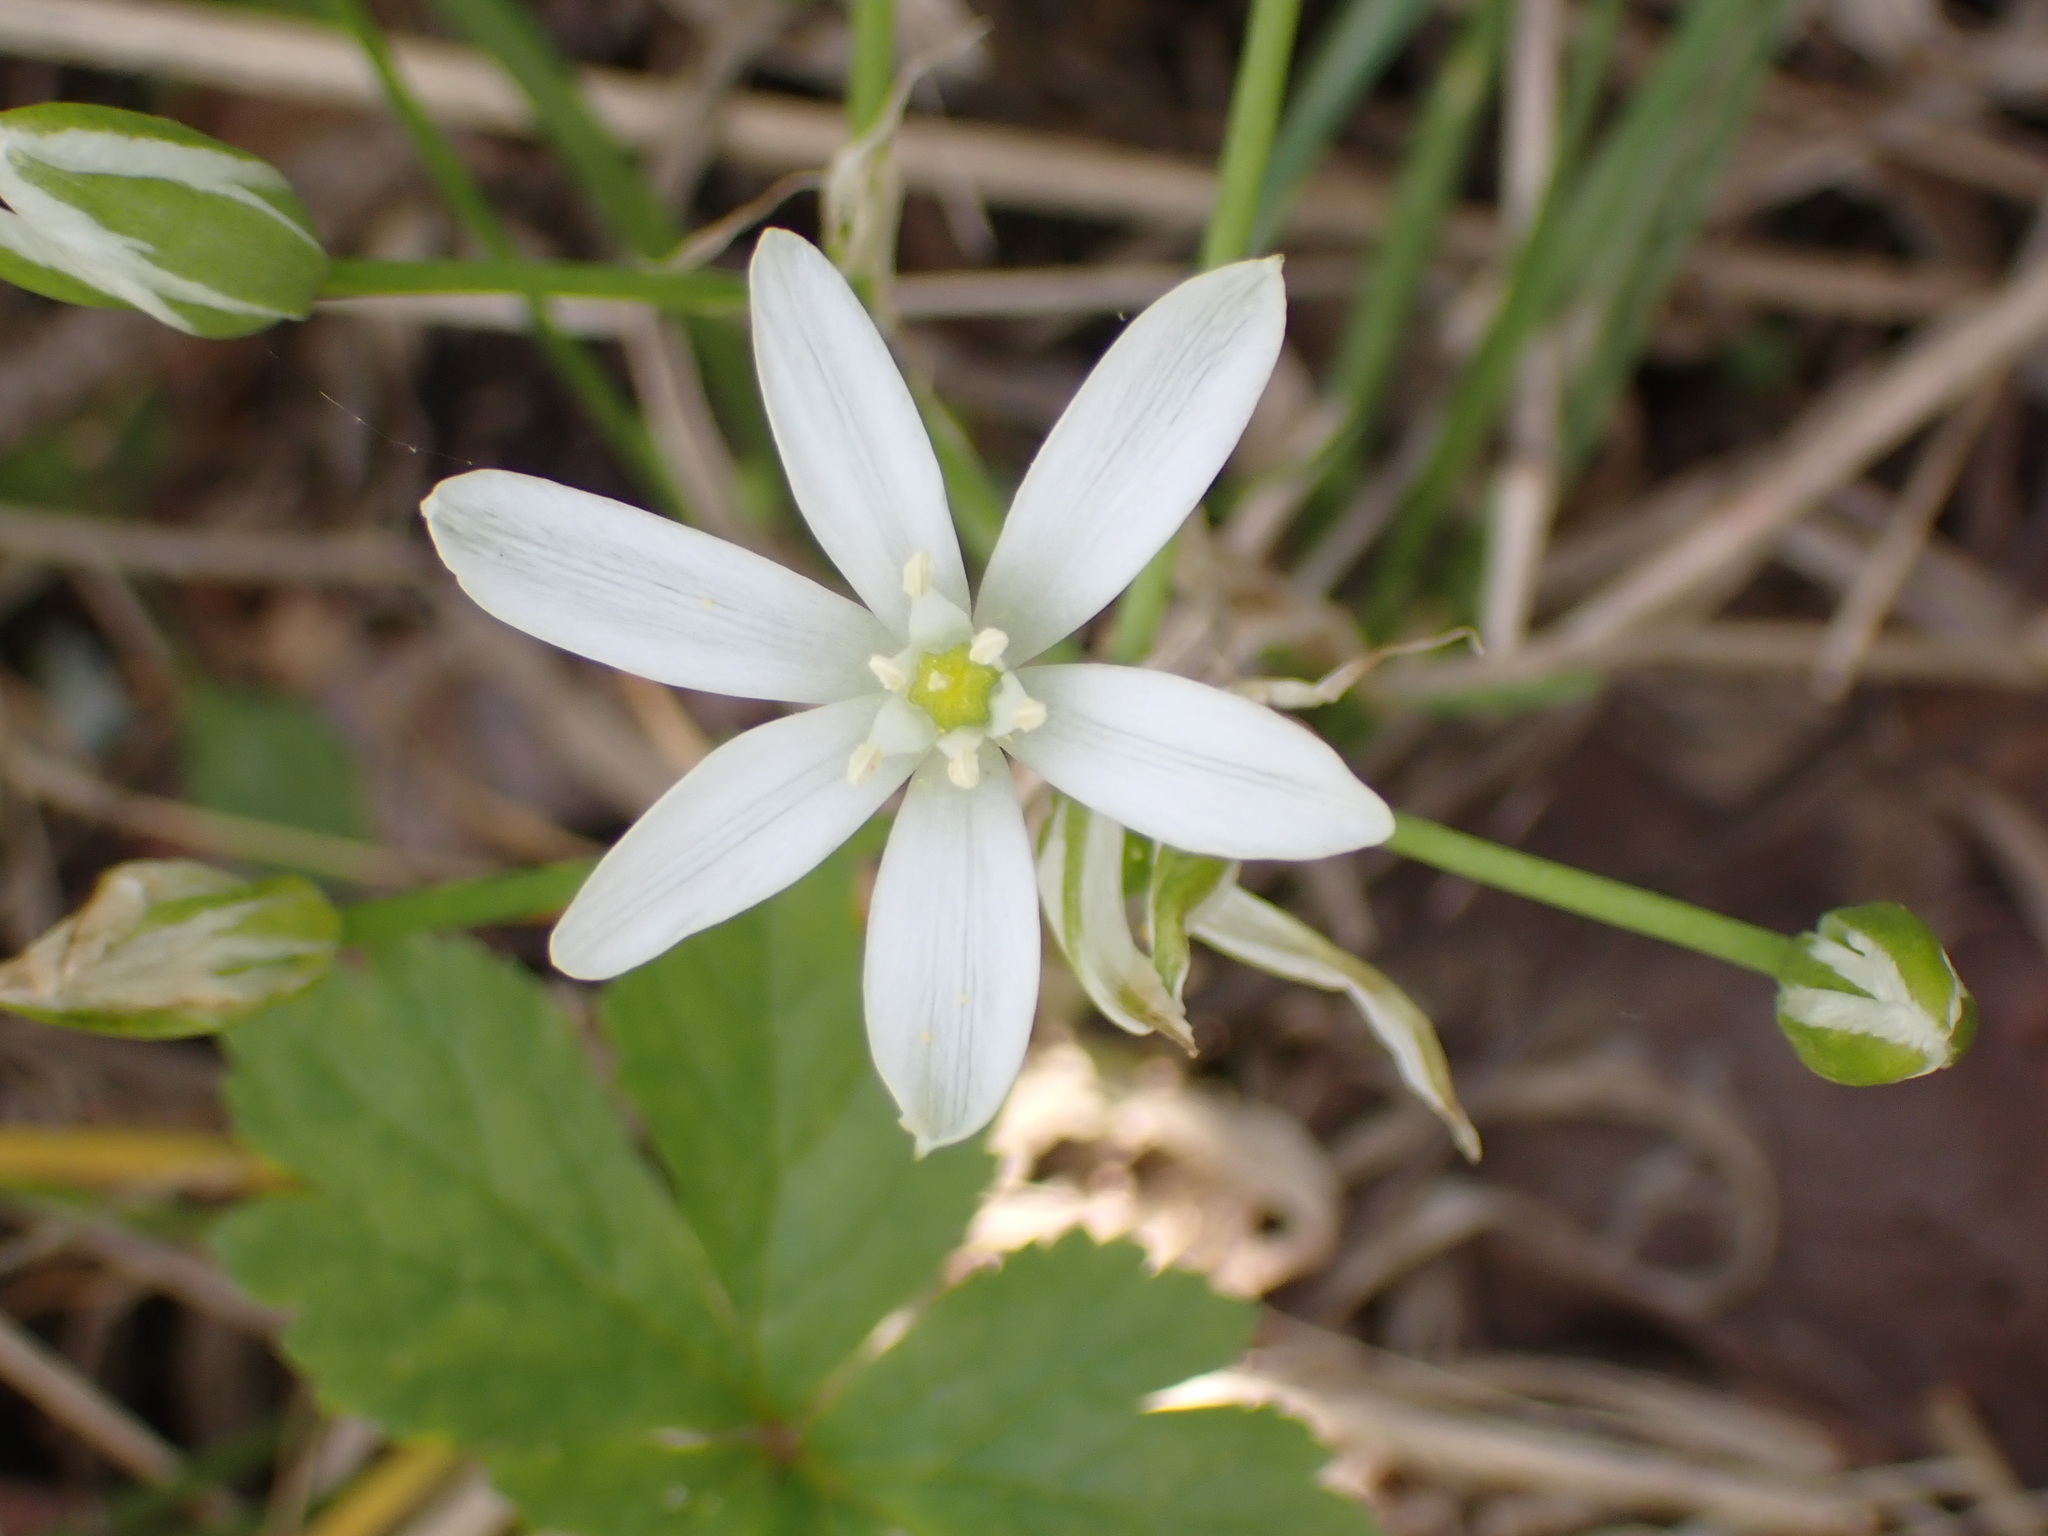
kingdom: Plantae
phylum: Tracheophyta
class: Liliopsida
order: Asparagales
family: Asparagaceae
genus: Ornithogalum
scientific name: Ornithogalum umbellatum
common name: Garden star-of-bethlehem
